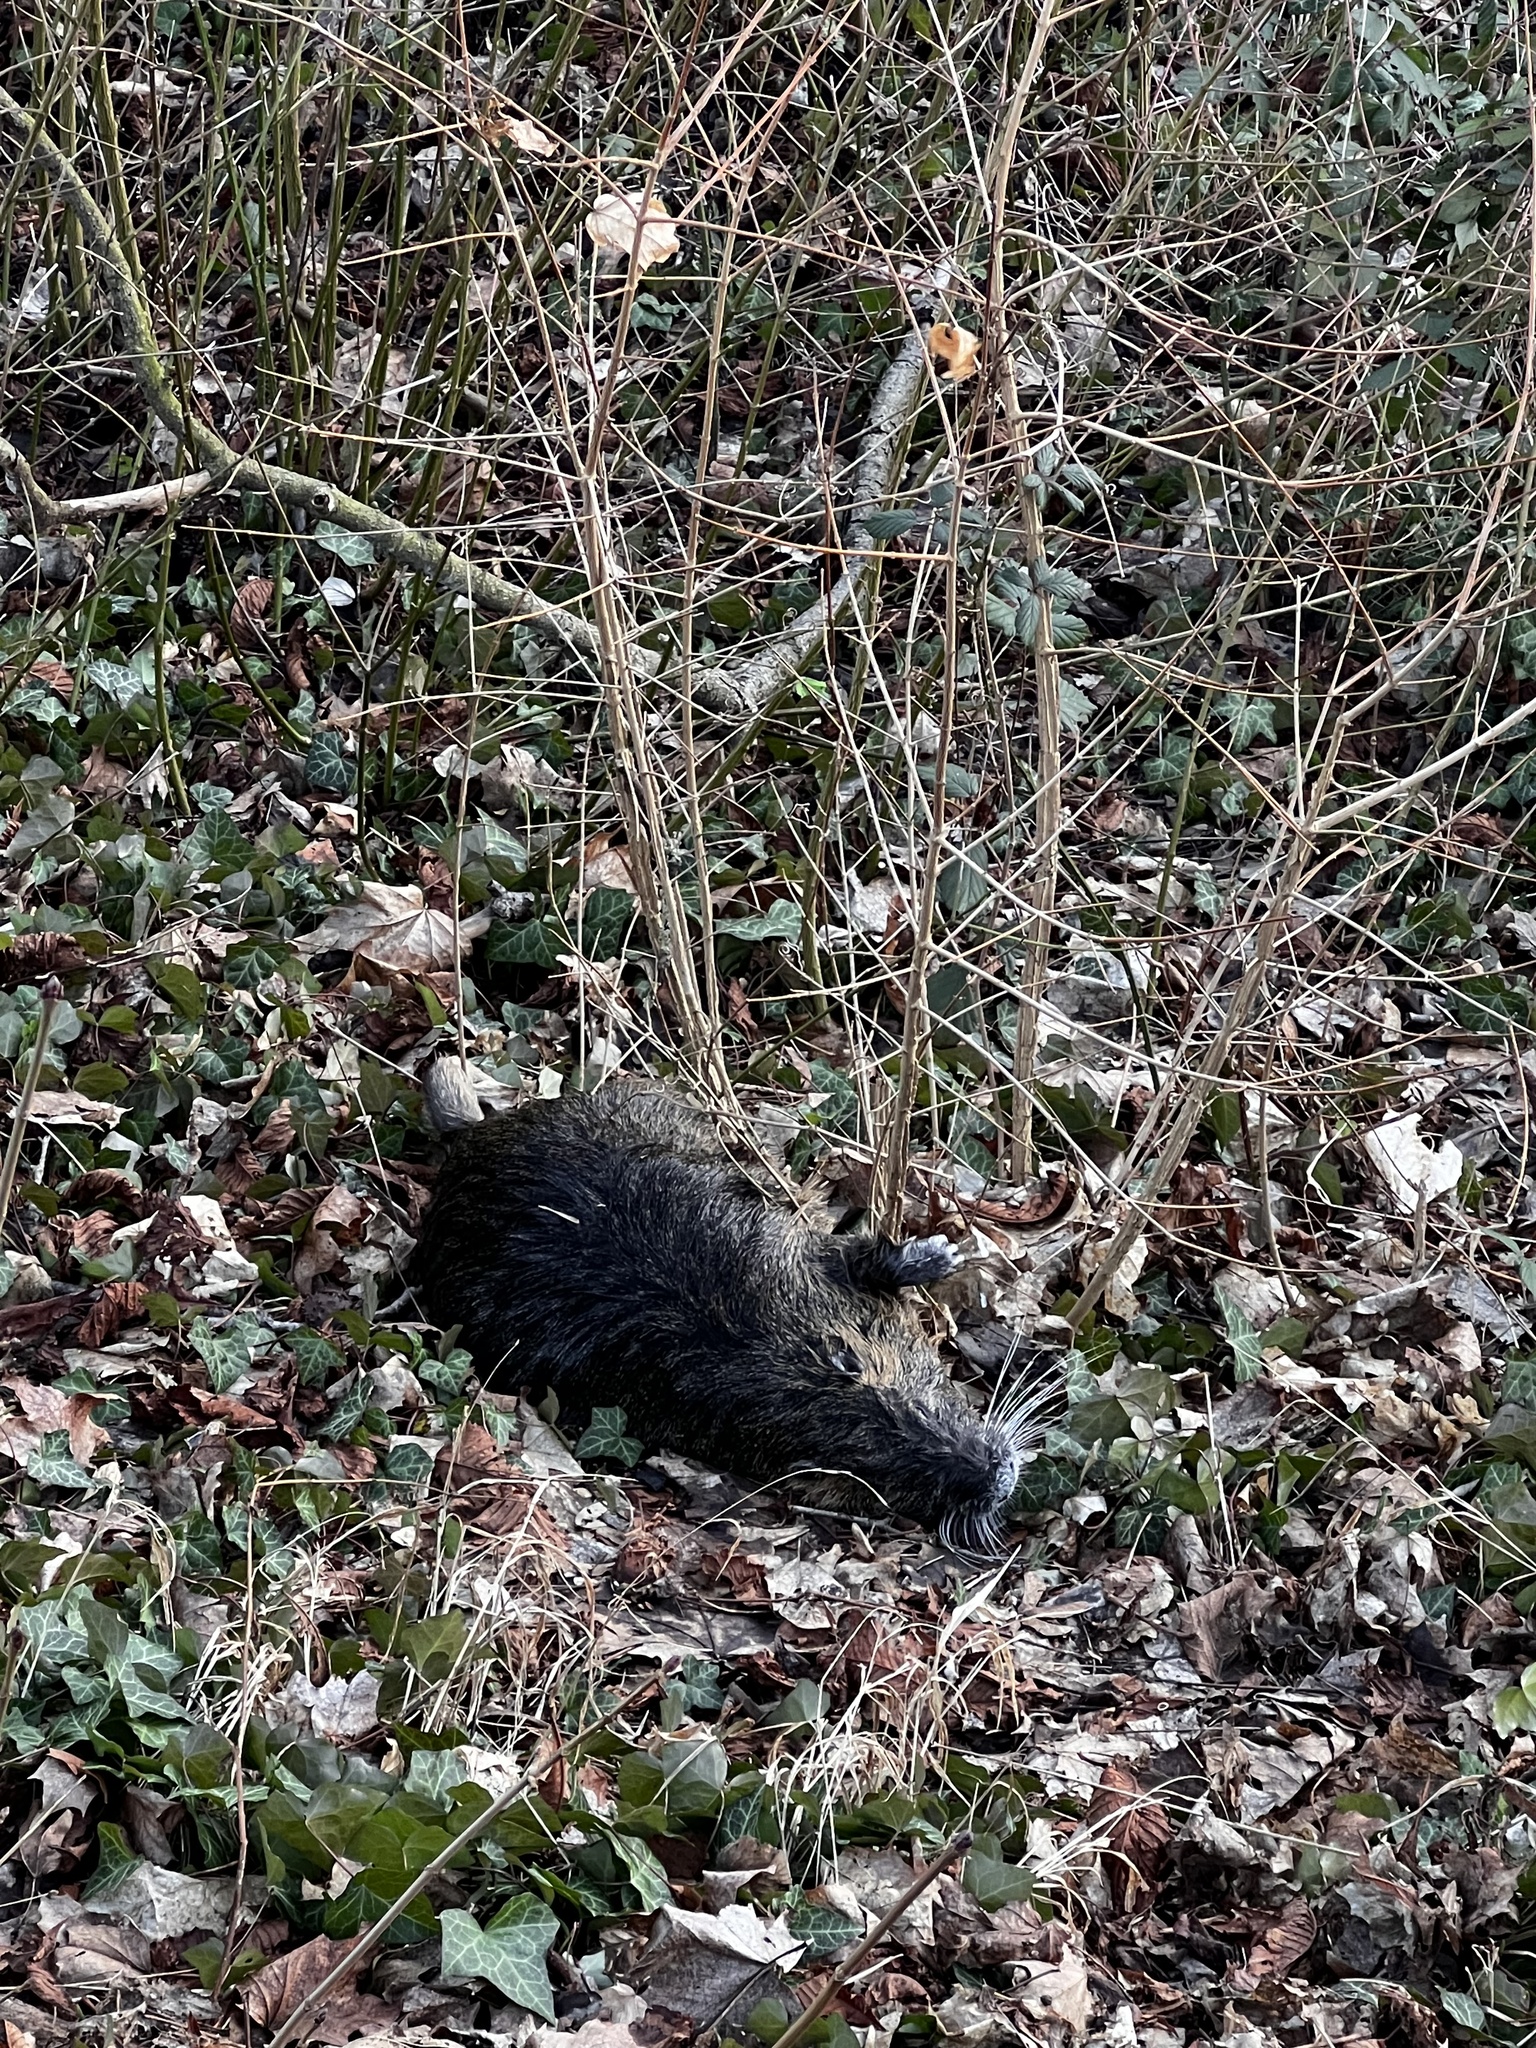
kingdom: Animalia
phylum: Chordata
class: Mammalia
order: Rodentia
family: Myocastoridae
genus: Myocastor
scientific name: Myocastor coypus
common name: Coypu
